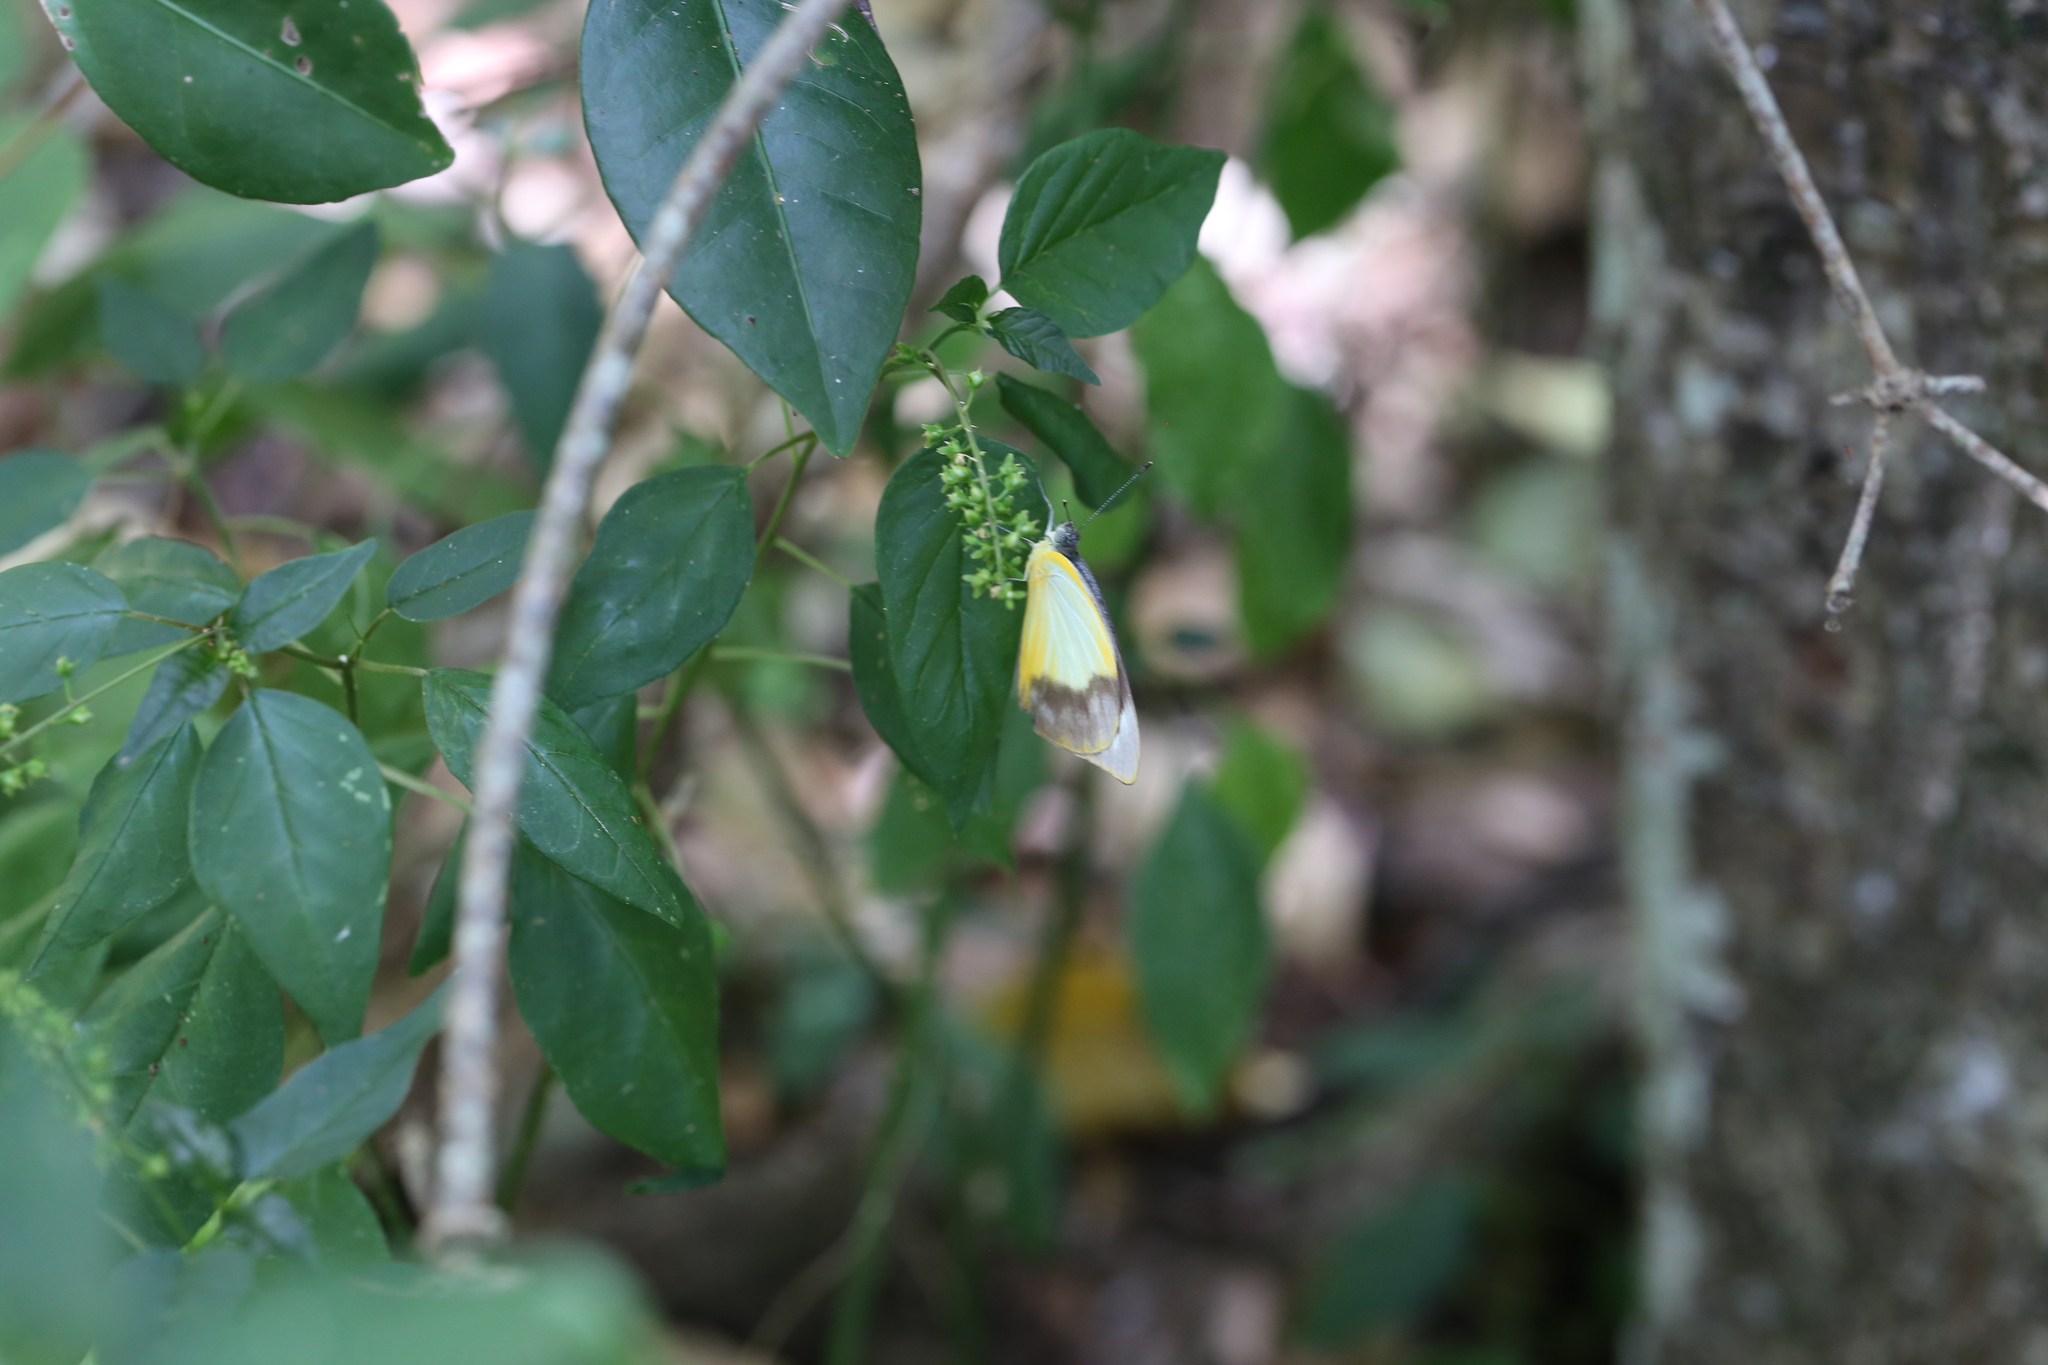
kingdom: Animalia
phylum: Arthropoda
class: Insecta
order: Lepidoptera
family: Pieridae
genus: Appias
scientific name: Appias paulina
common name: Ceylon lesser albatross
